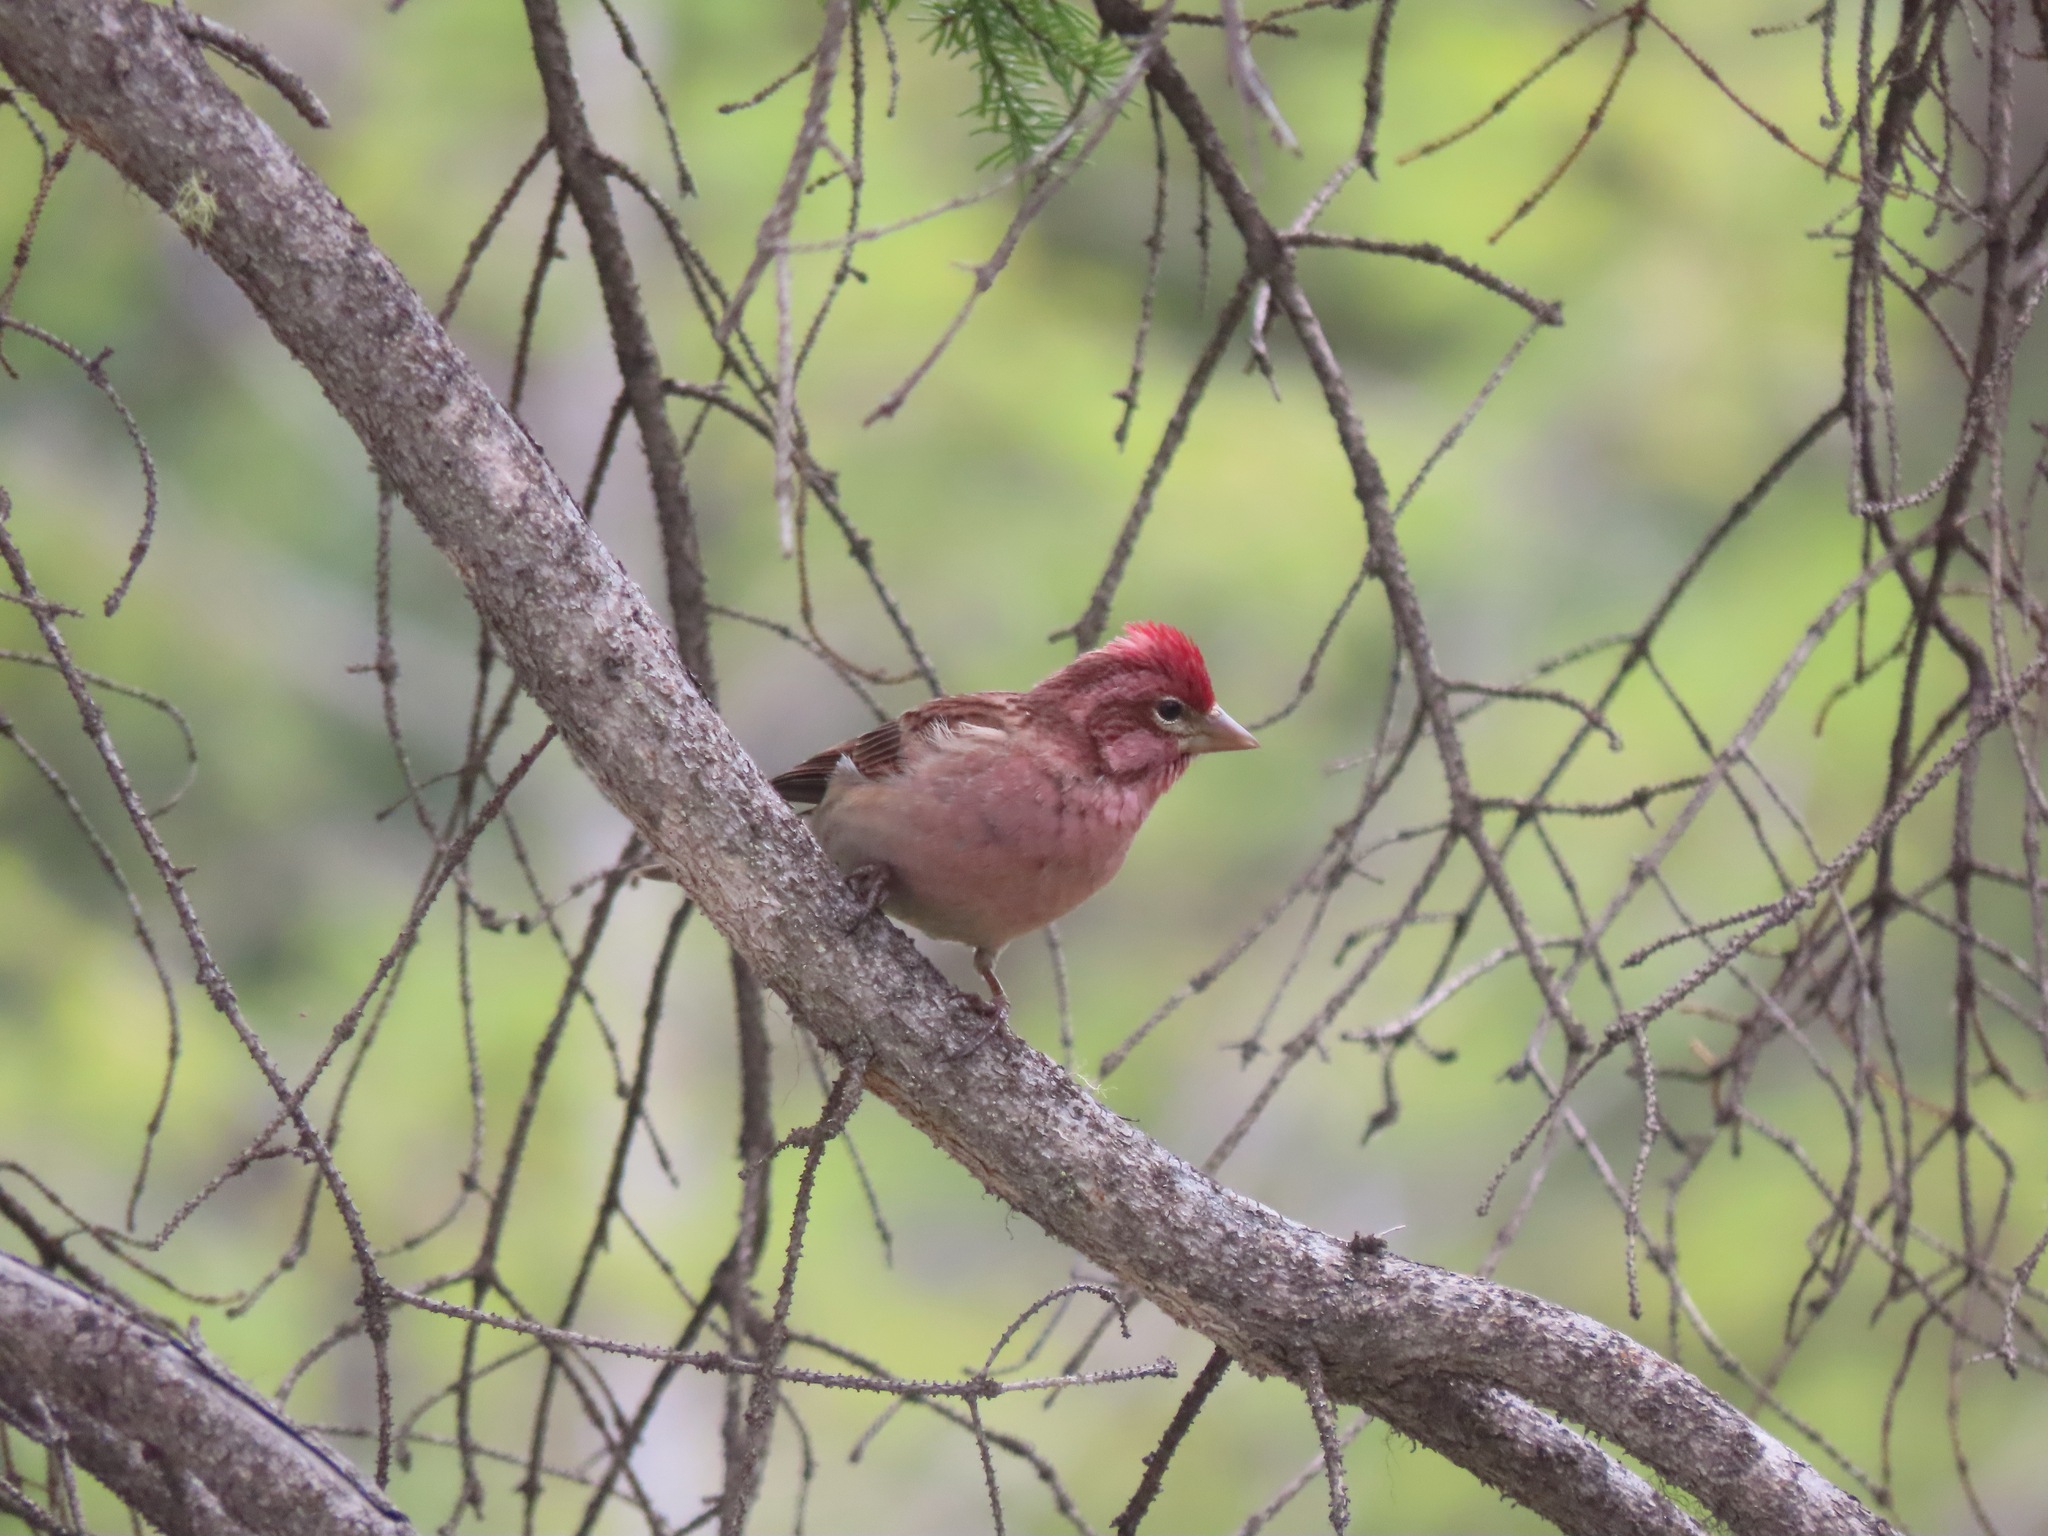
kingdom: Animalia
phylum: Chordata
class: Aves
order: Passeriformes
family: Fringillidae
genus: Haemorhous
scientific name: Haemorhous cassinii
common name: Cassin's finch
